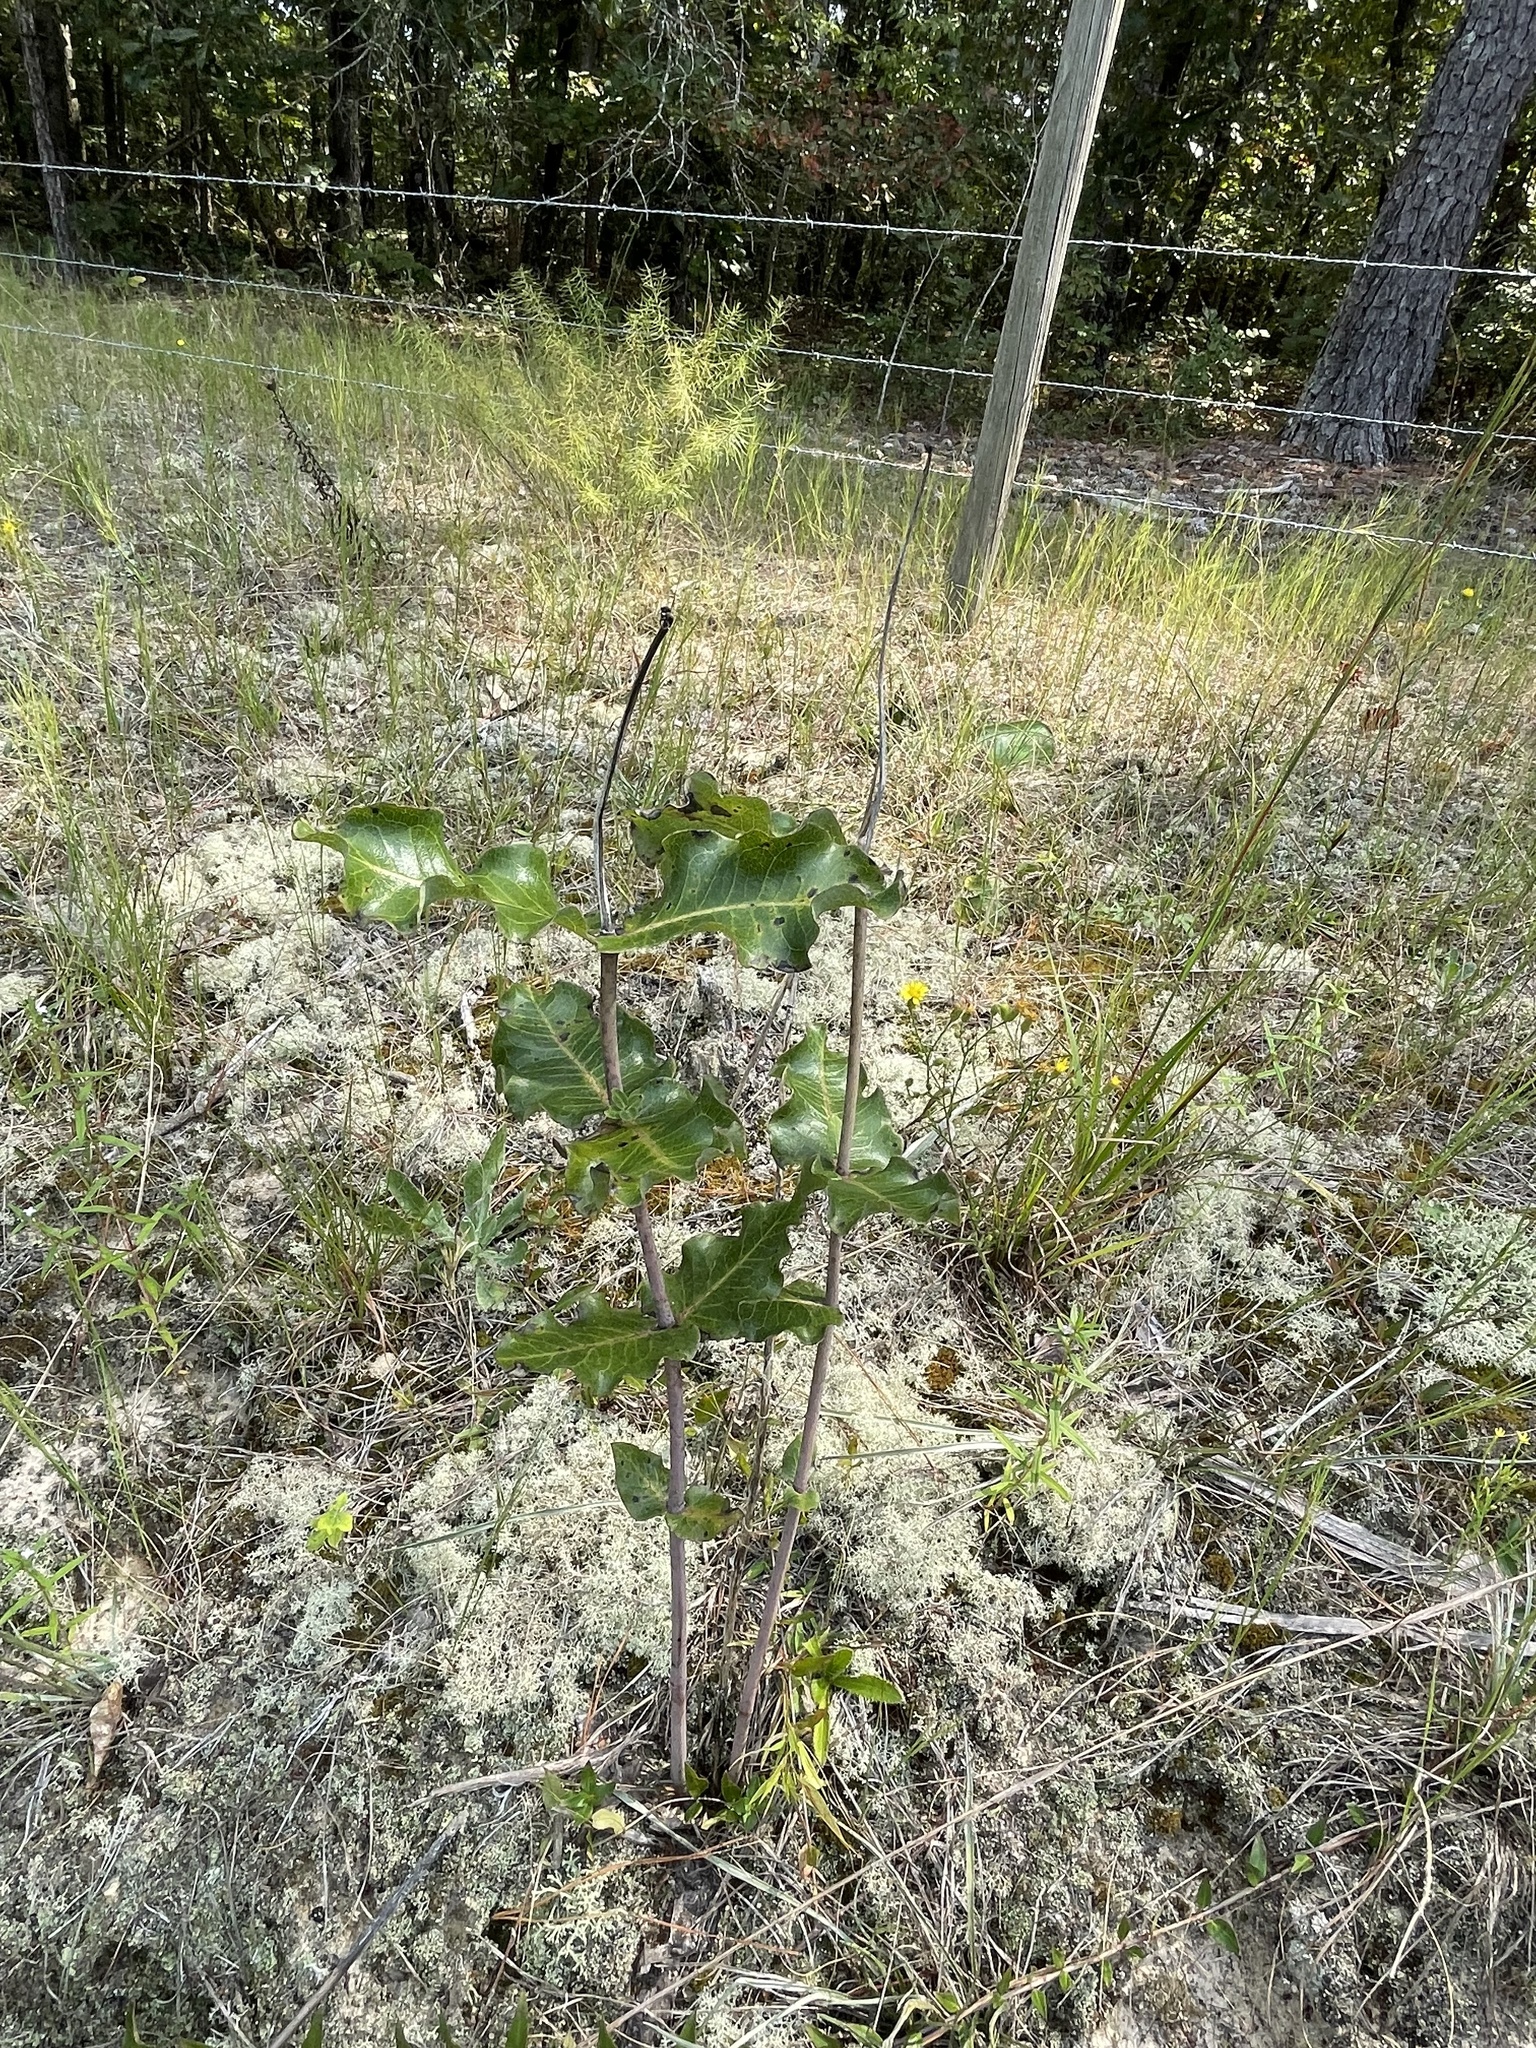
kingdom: Plantae
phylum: Tracheophyta
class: Magnoliopsida
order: Gentianales
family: Apocynaceae
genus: Asclepias
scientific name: Asclepias amplexicaulis
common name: Blunt-leaf milkweed
